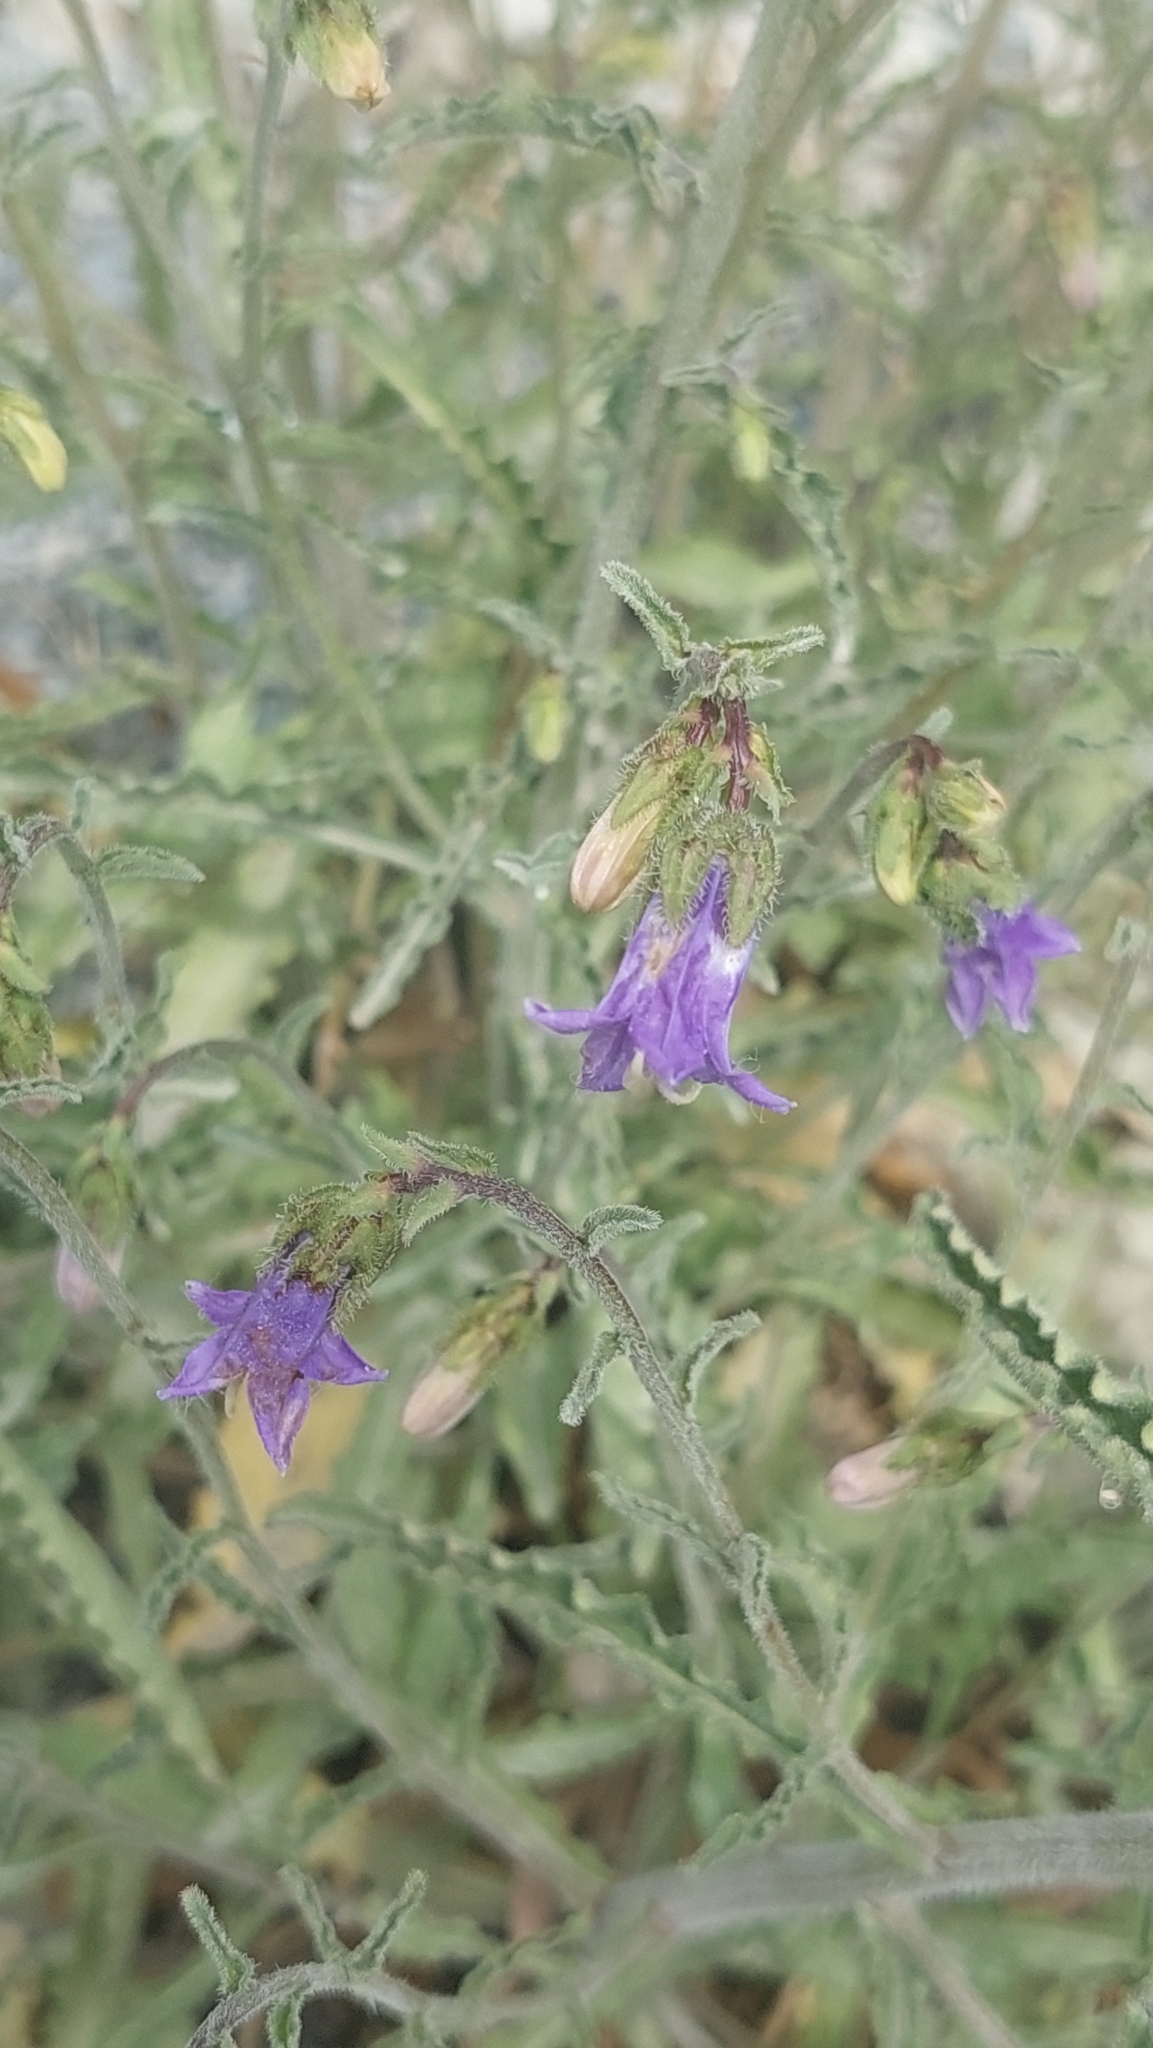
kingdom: Plantae
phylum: Tracheophyta
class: Magnoliopsida
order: Asterales
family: Campanulaceae
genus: Campanula
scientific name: Campanula komarovii
